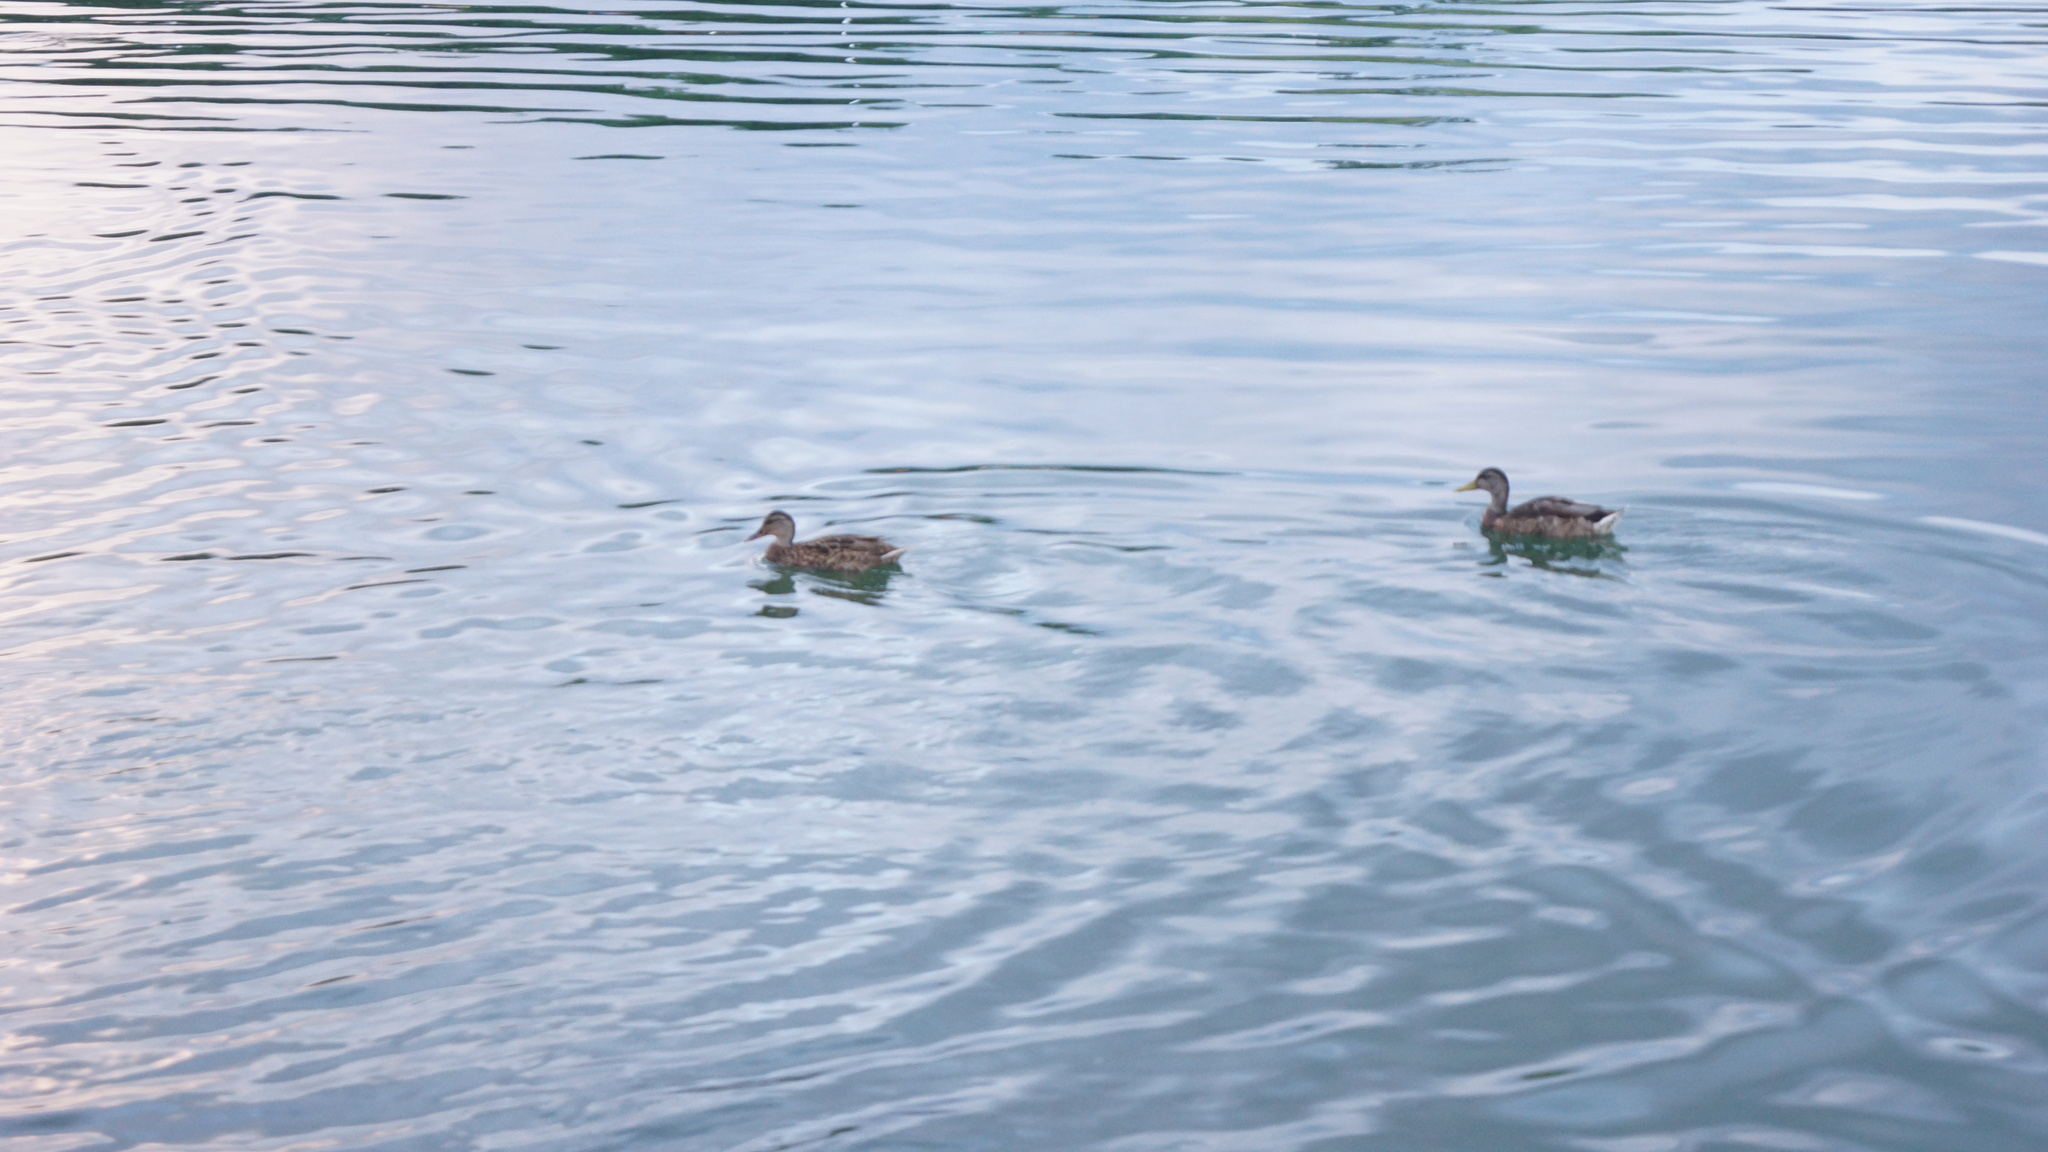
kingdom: Animalia
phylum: Chordata
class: Aves
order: Anseriformes
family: Anatidae
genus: Anas
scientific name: Anas platyrhynchos
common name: Mallard
